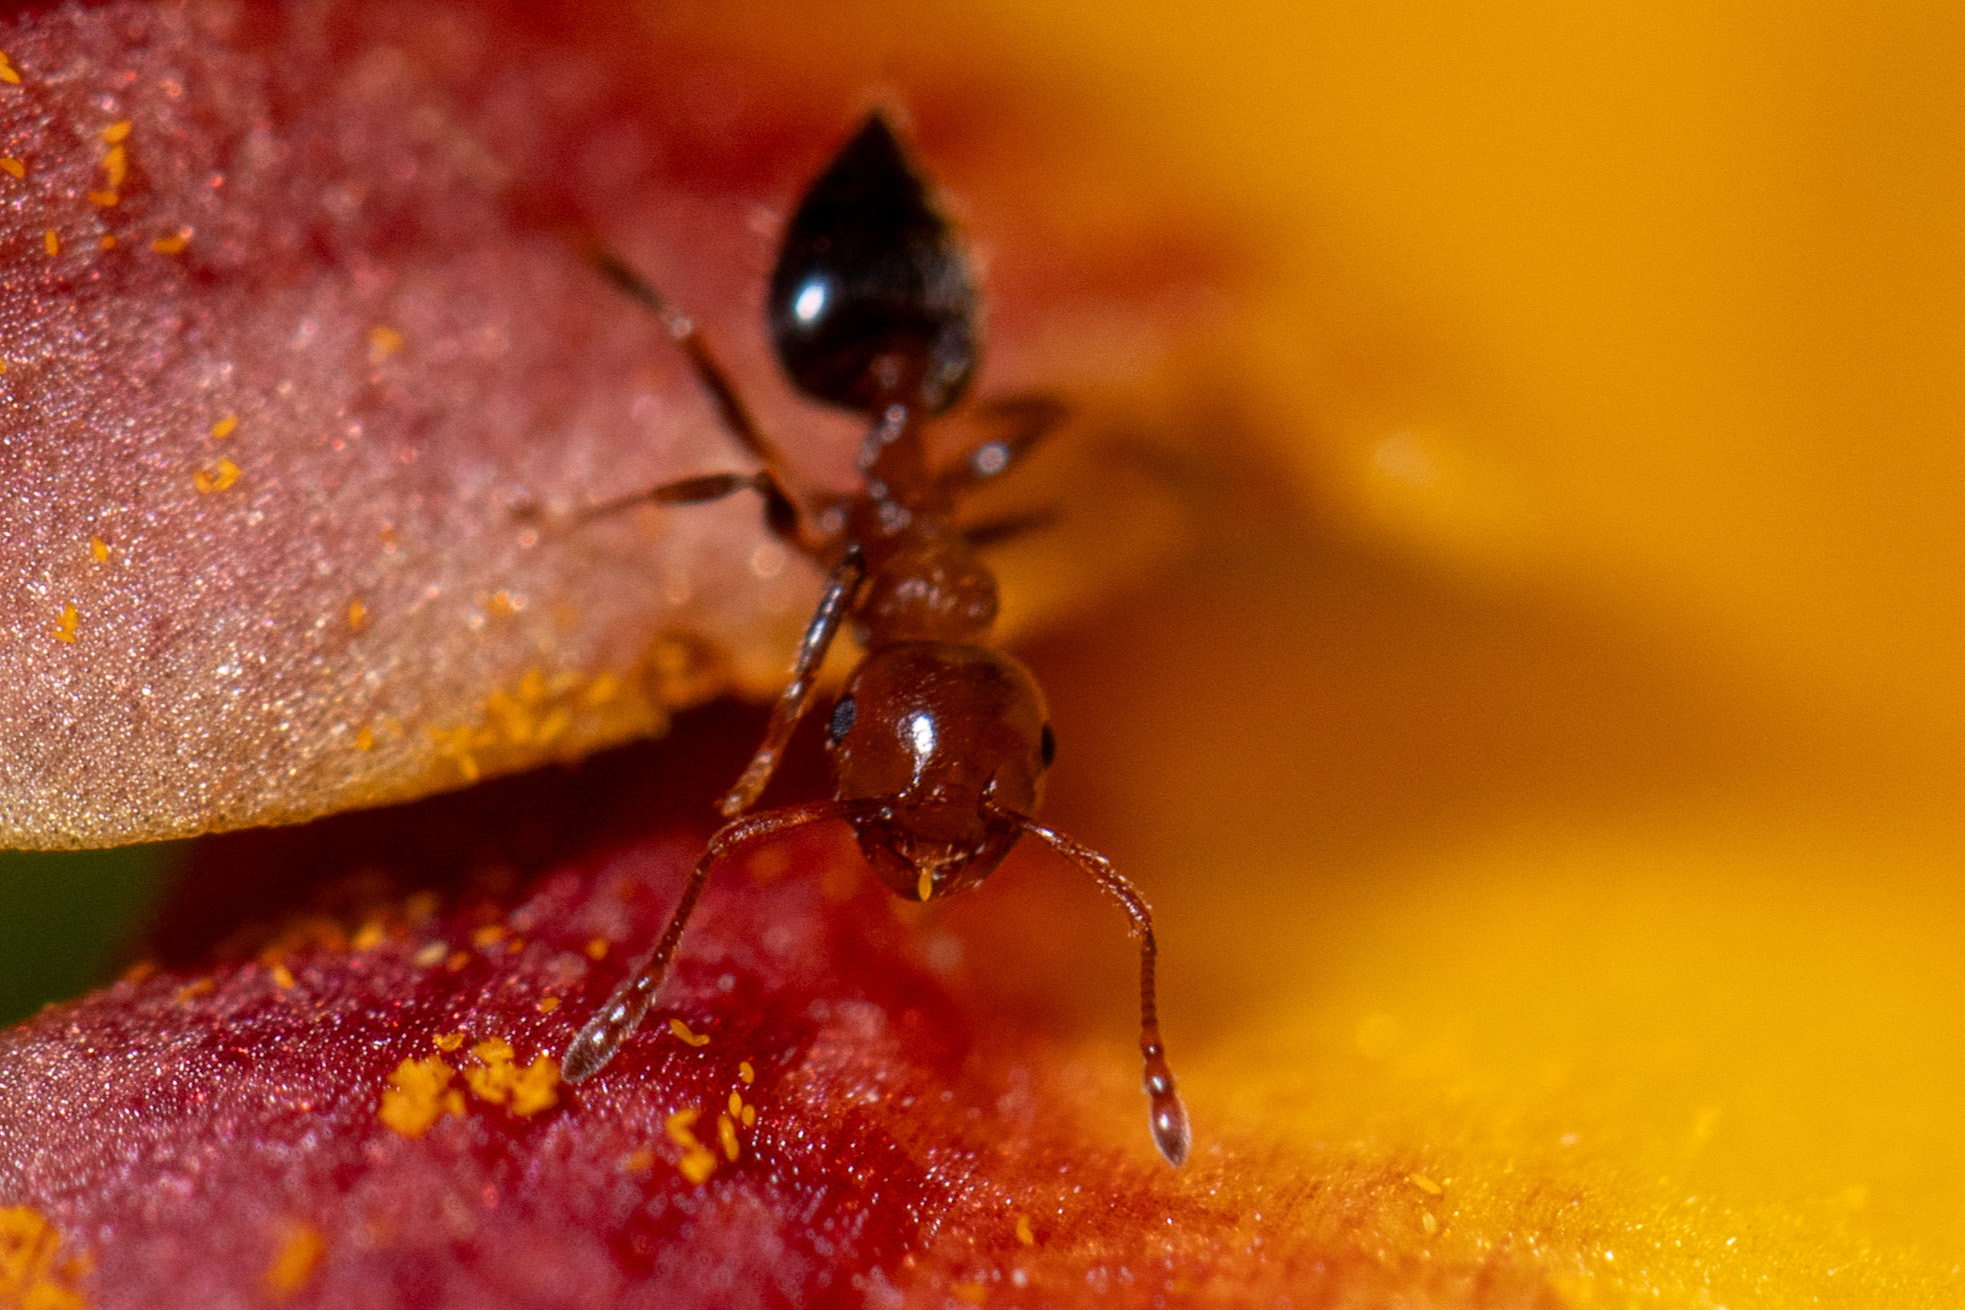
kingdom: Animalia
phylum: Arthropoda
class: Insecta
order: Hymenoptera
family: Formicidae
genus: Crematogaster
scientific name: Crematogaster laeviuscula
